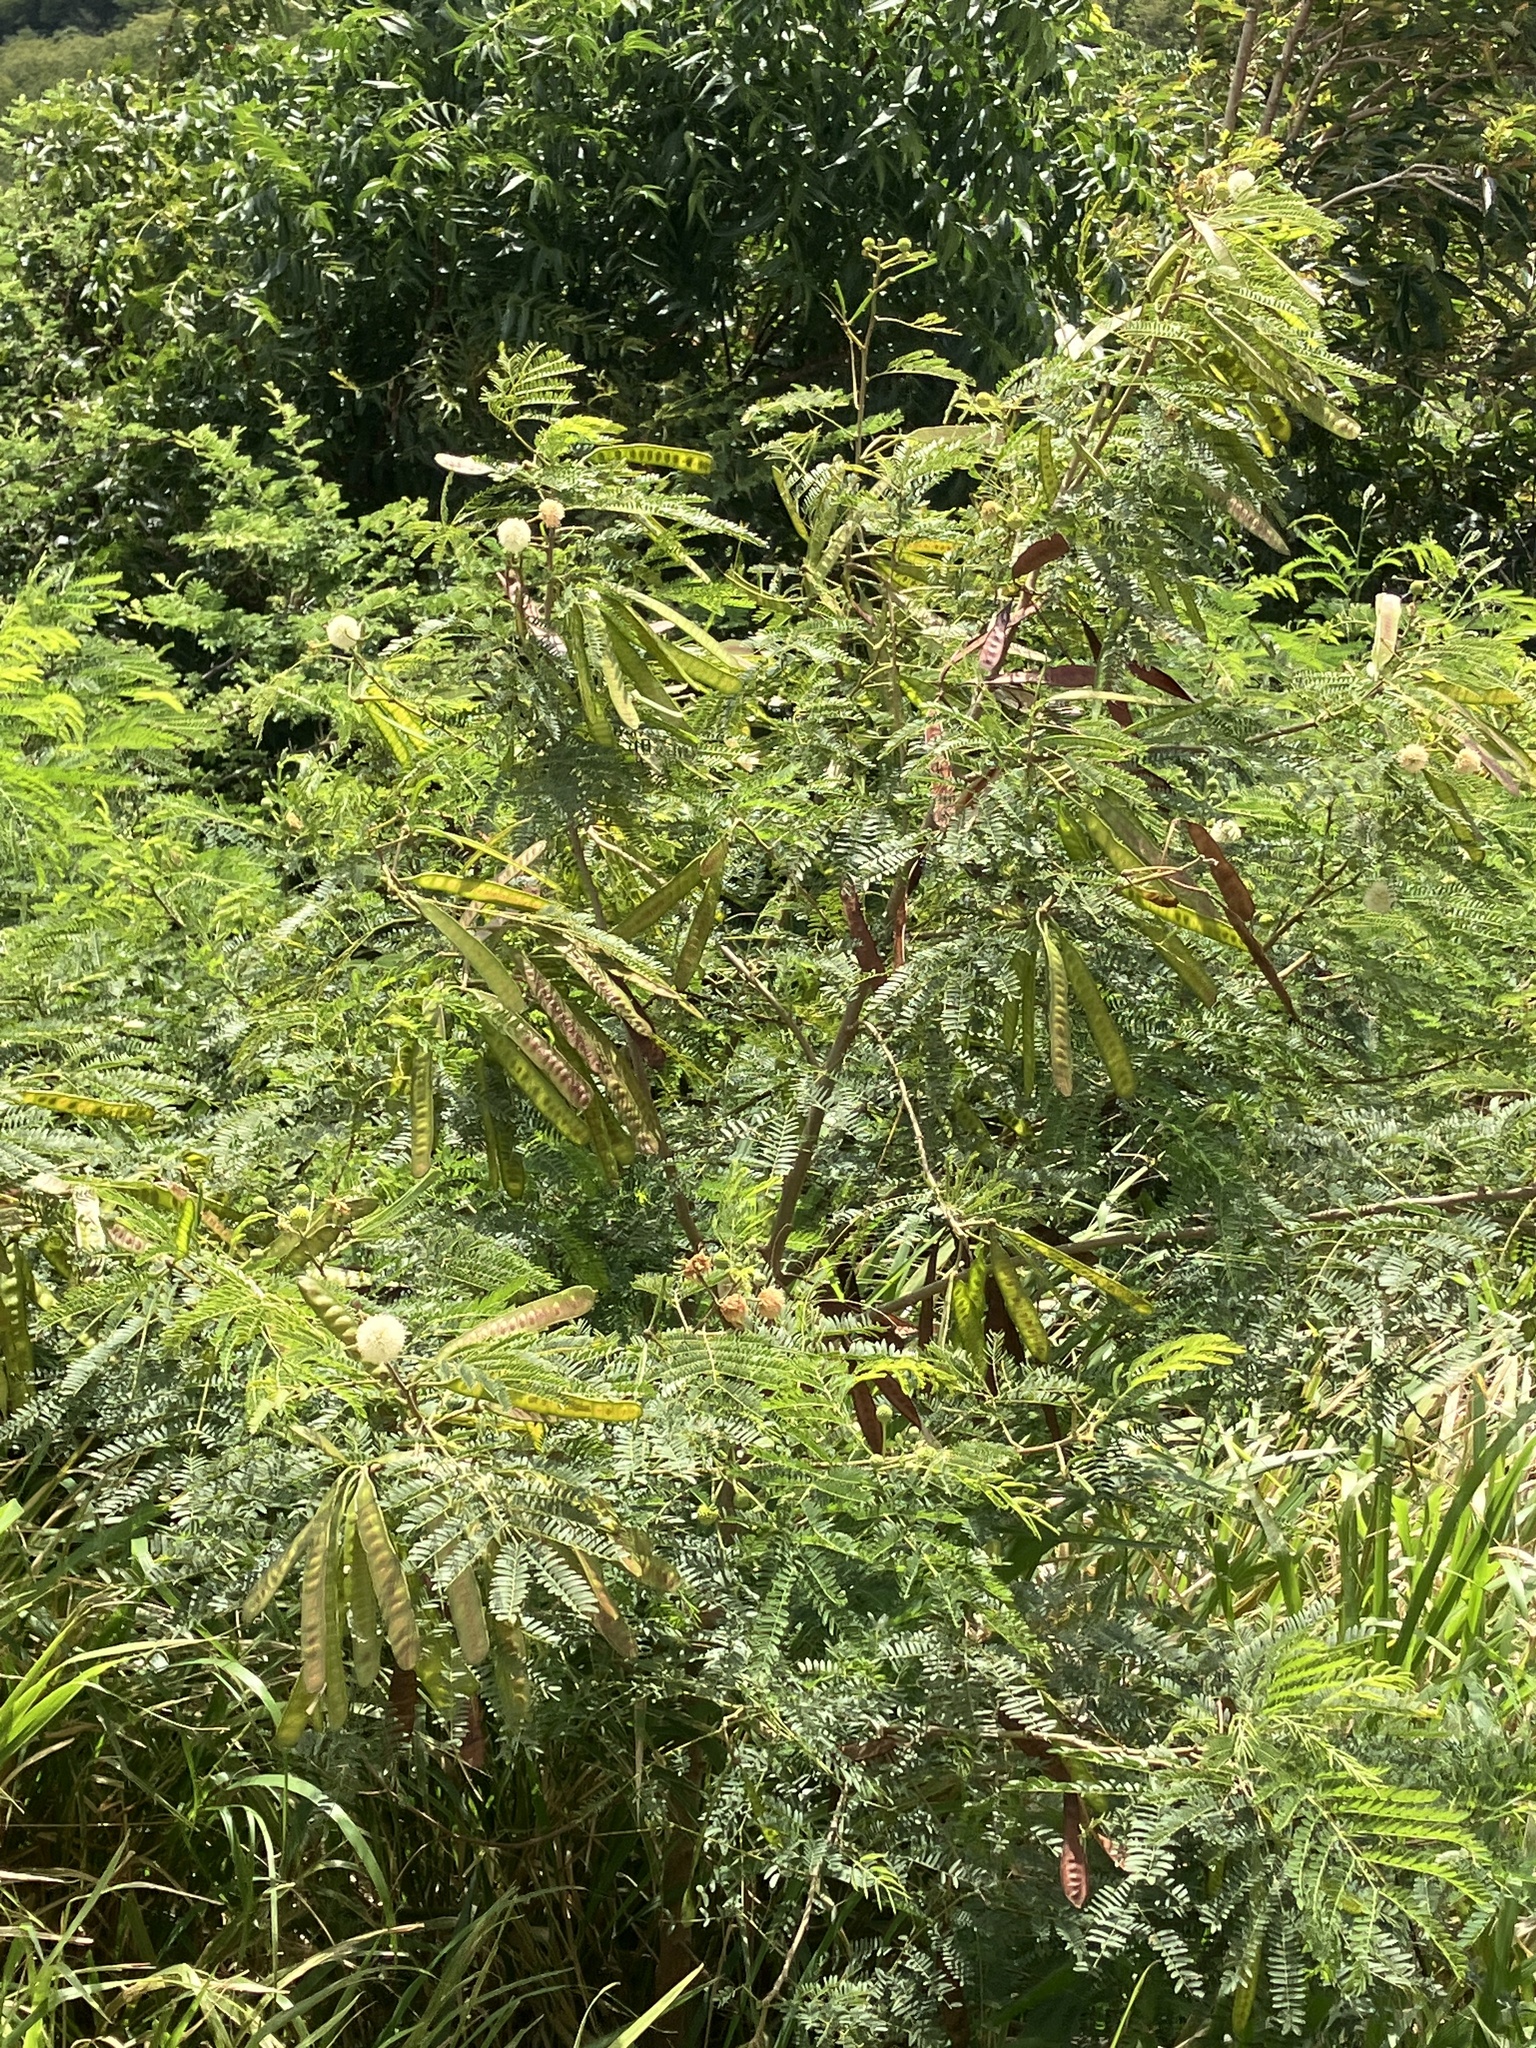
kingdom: Plantae
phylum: Tracheophyta
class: Magnoliopsida
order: Fabales
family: Fabaceae
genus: Leucaena
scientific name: Leucaena leucocephala
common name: White leadtree
